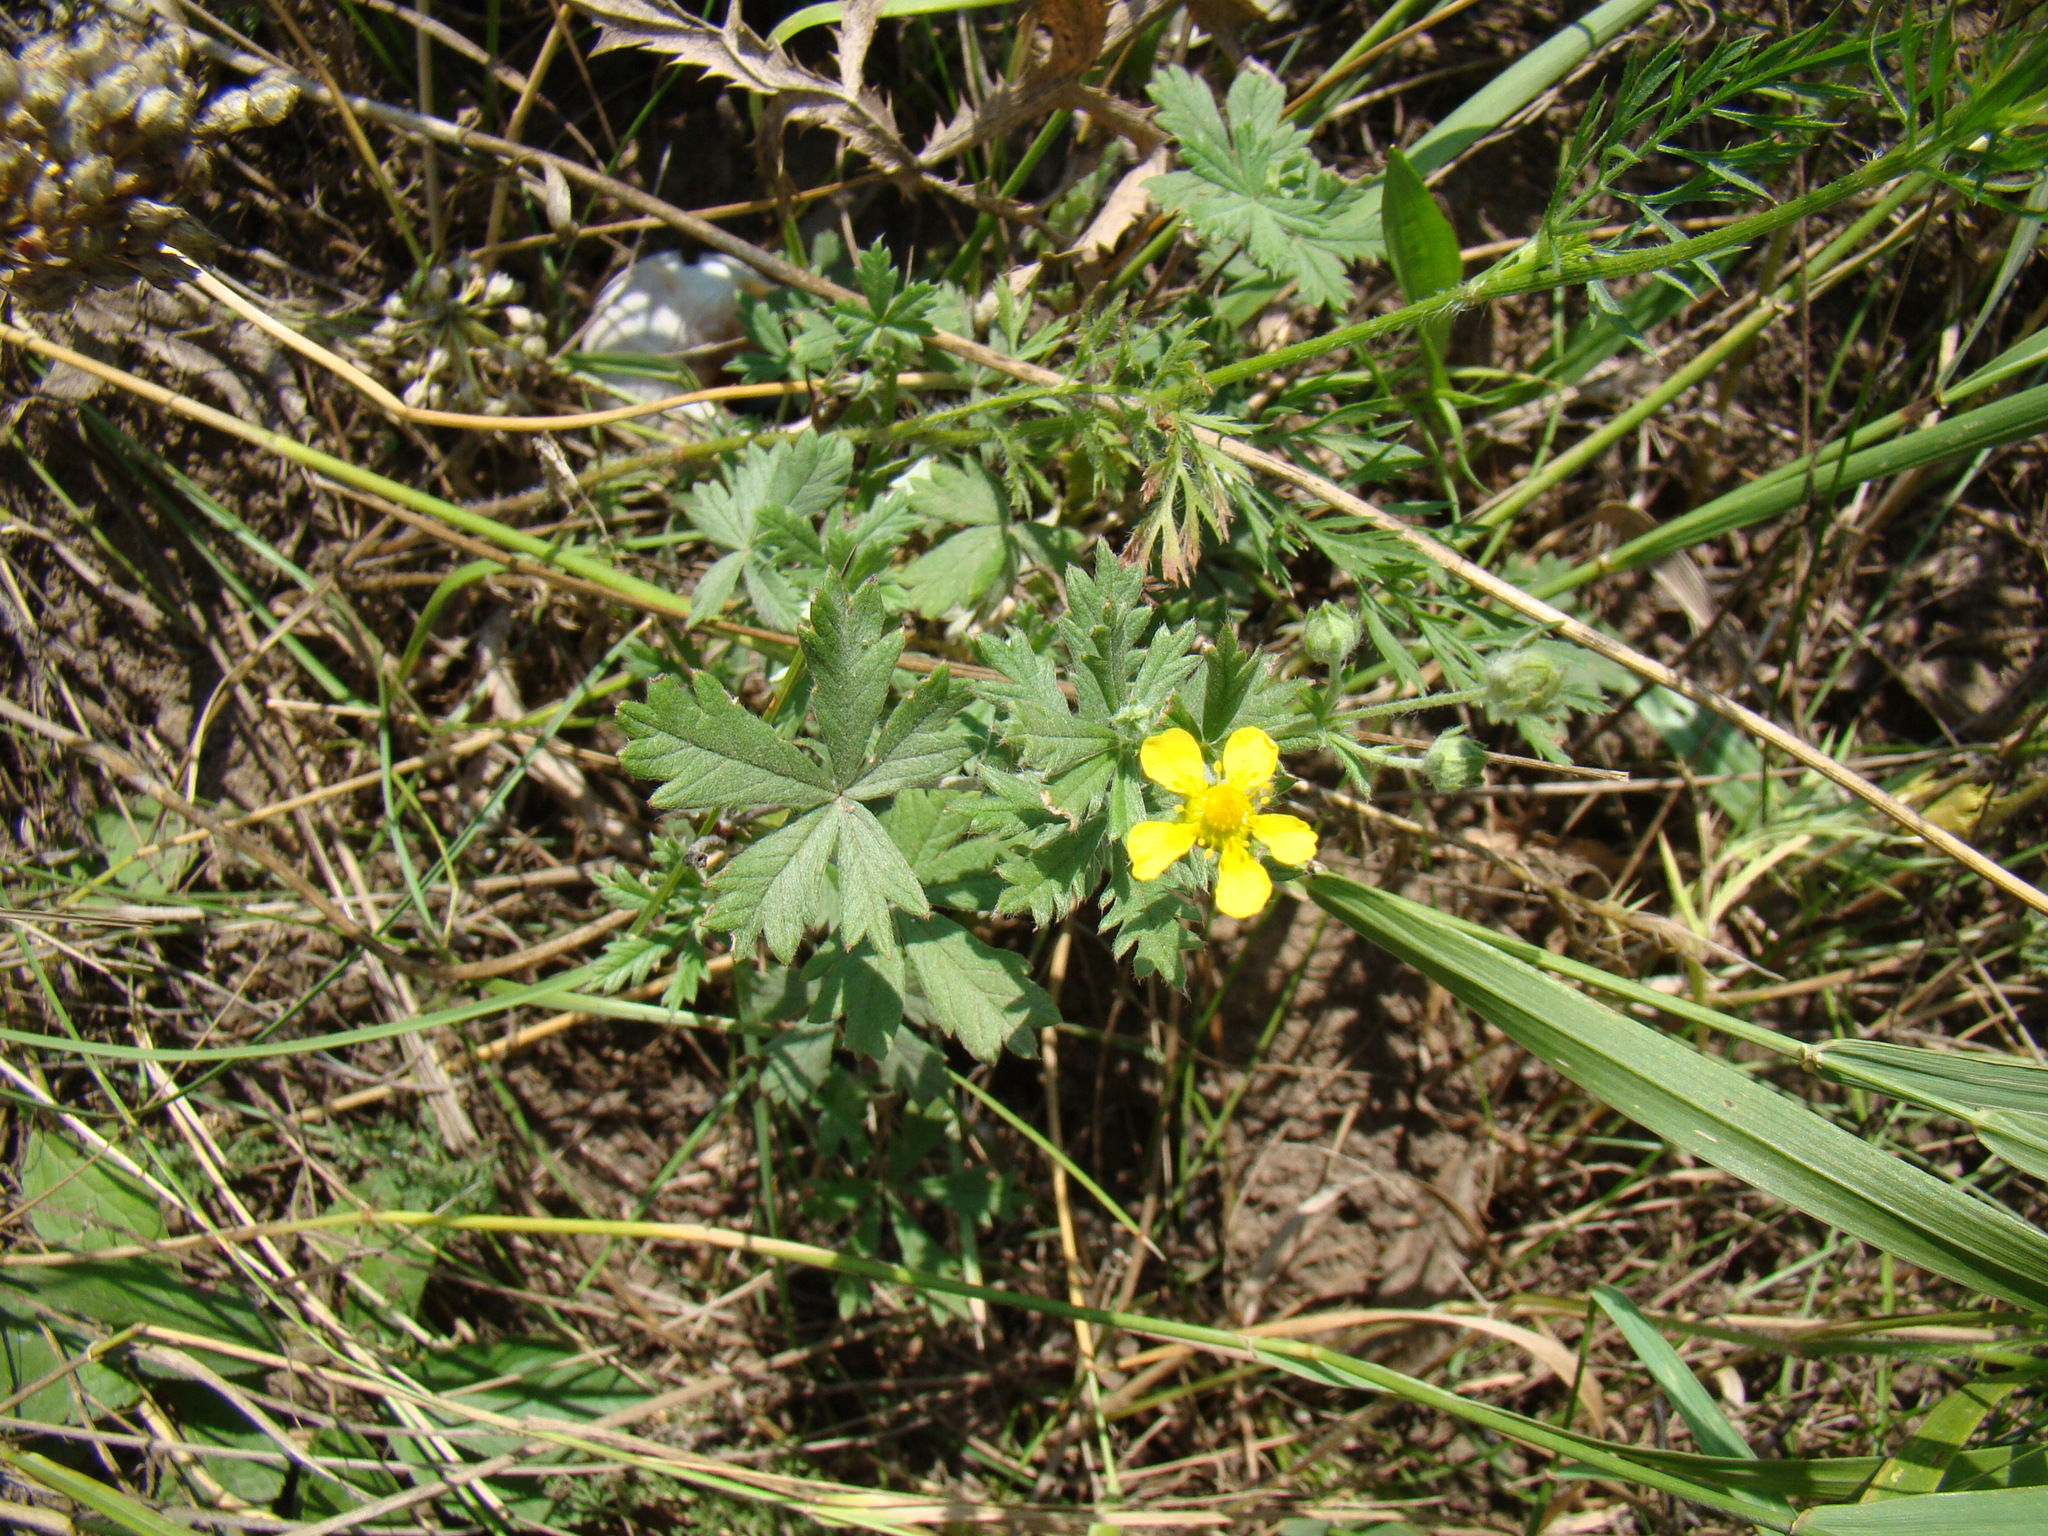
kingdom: Plantae
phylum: Tracheophyta
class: Magnoliopsida
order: Rosales
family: Rosaceae
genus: Potentilla
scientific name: Potentilla argentea
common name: Hoary cinquefoil
